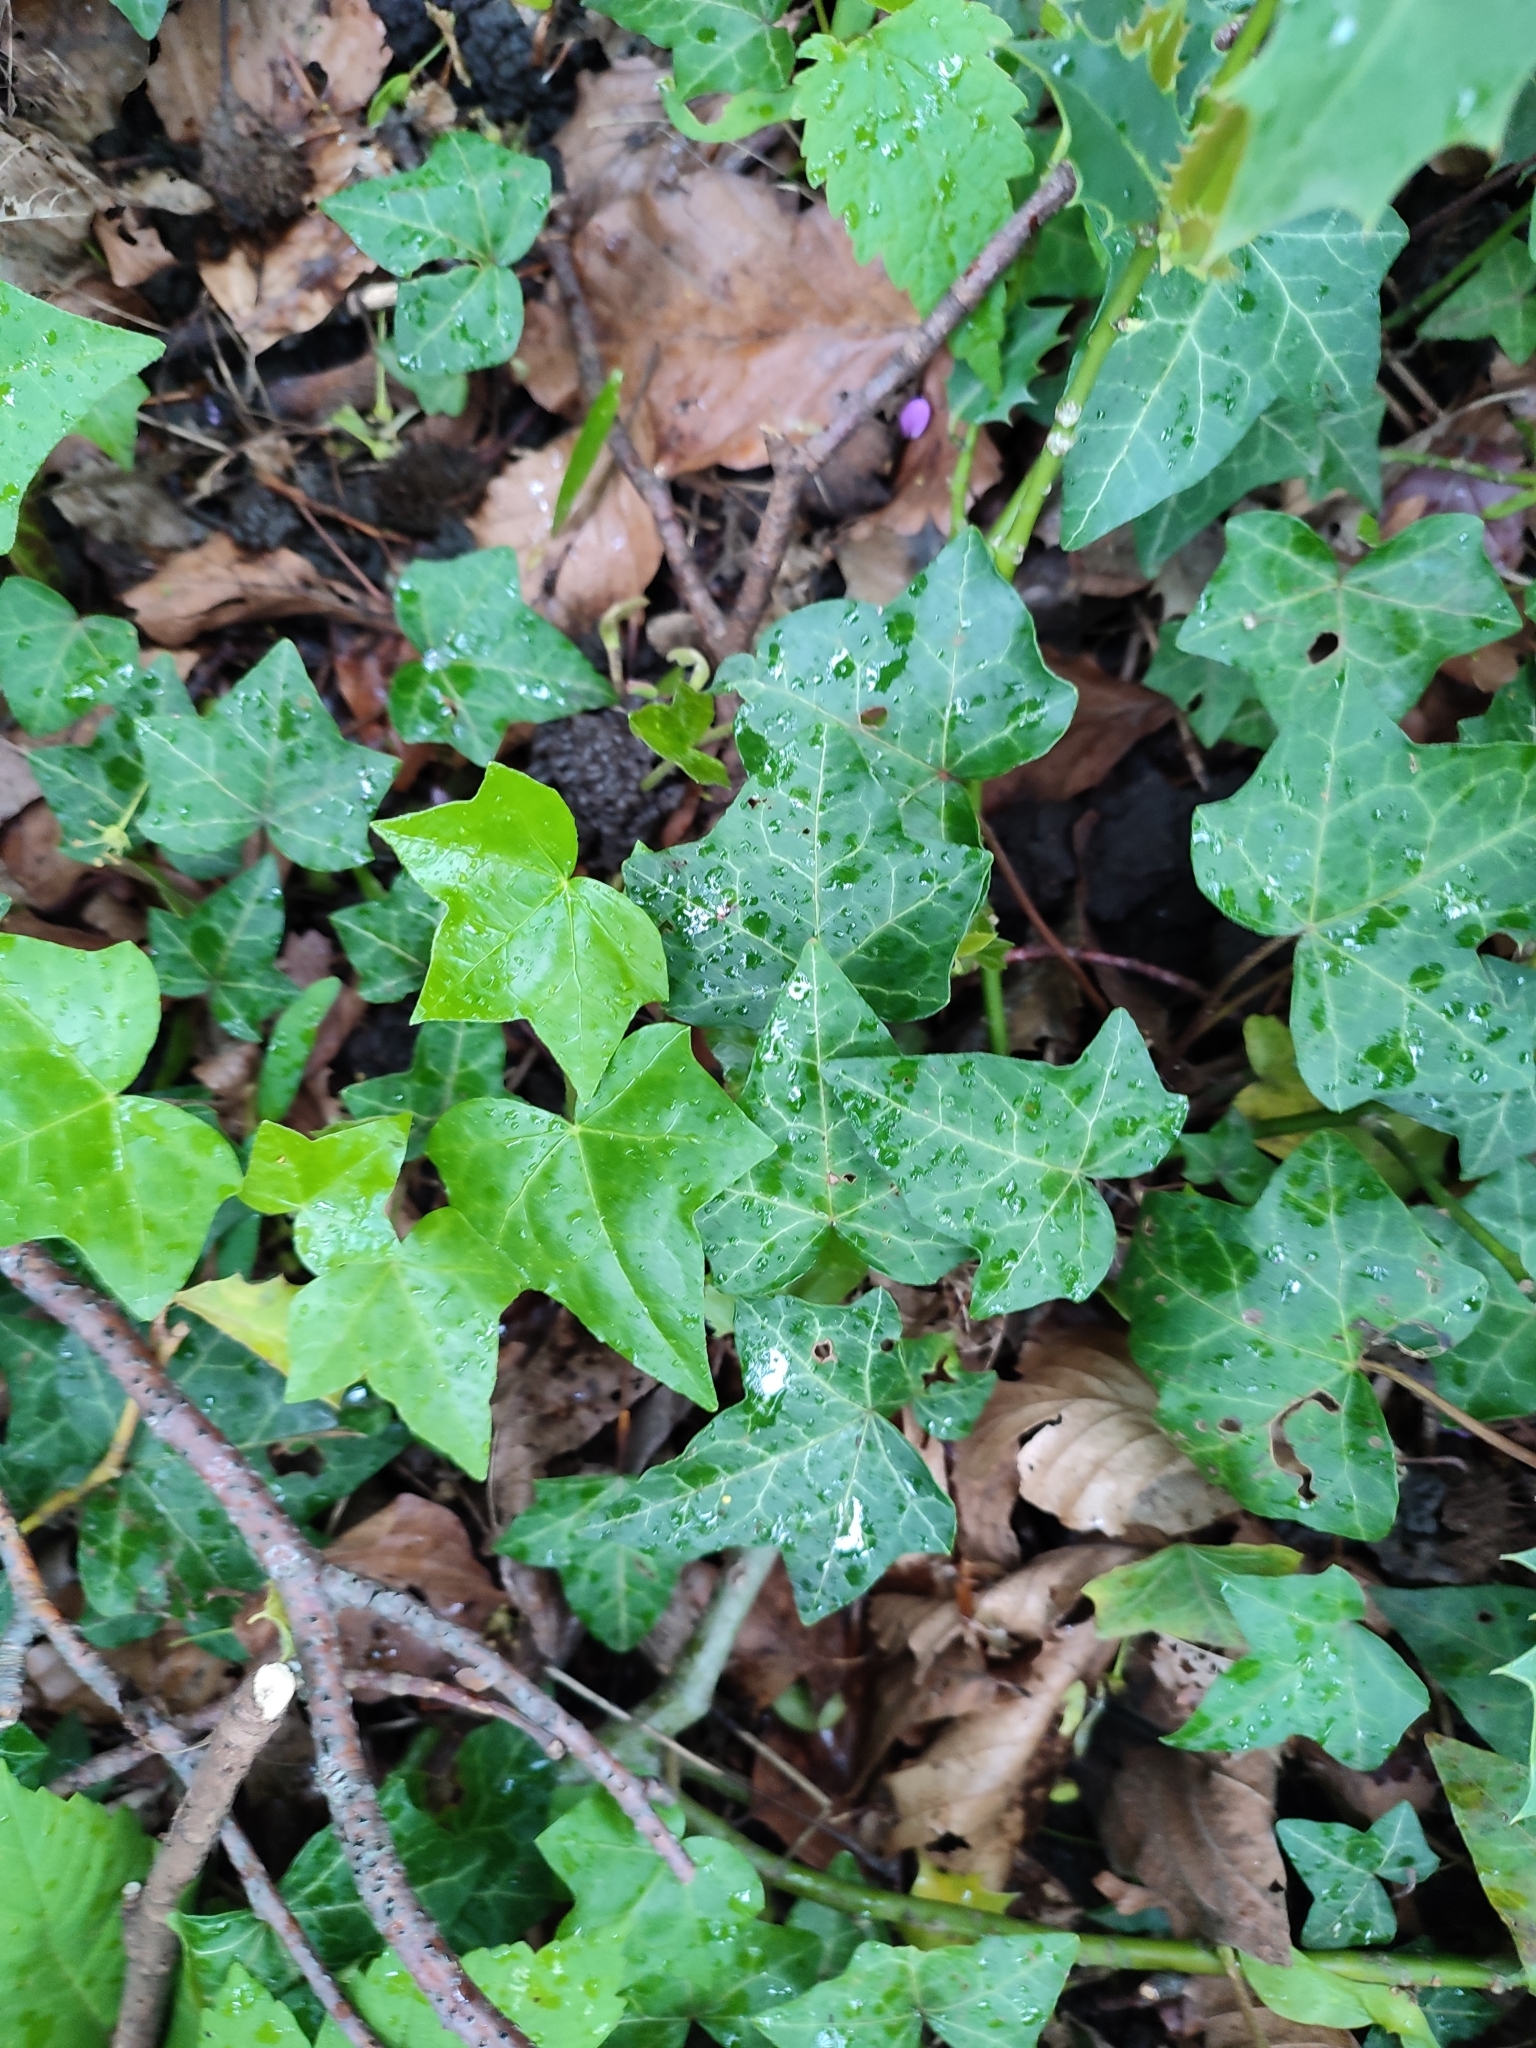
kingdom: Plantae
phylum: Tracheophyta
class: Magnoliopsida
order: Apiales
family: Araliaceae
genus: Hedera
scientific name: Hedera helix
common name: Ivy
